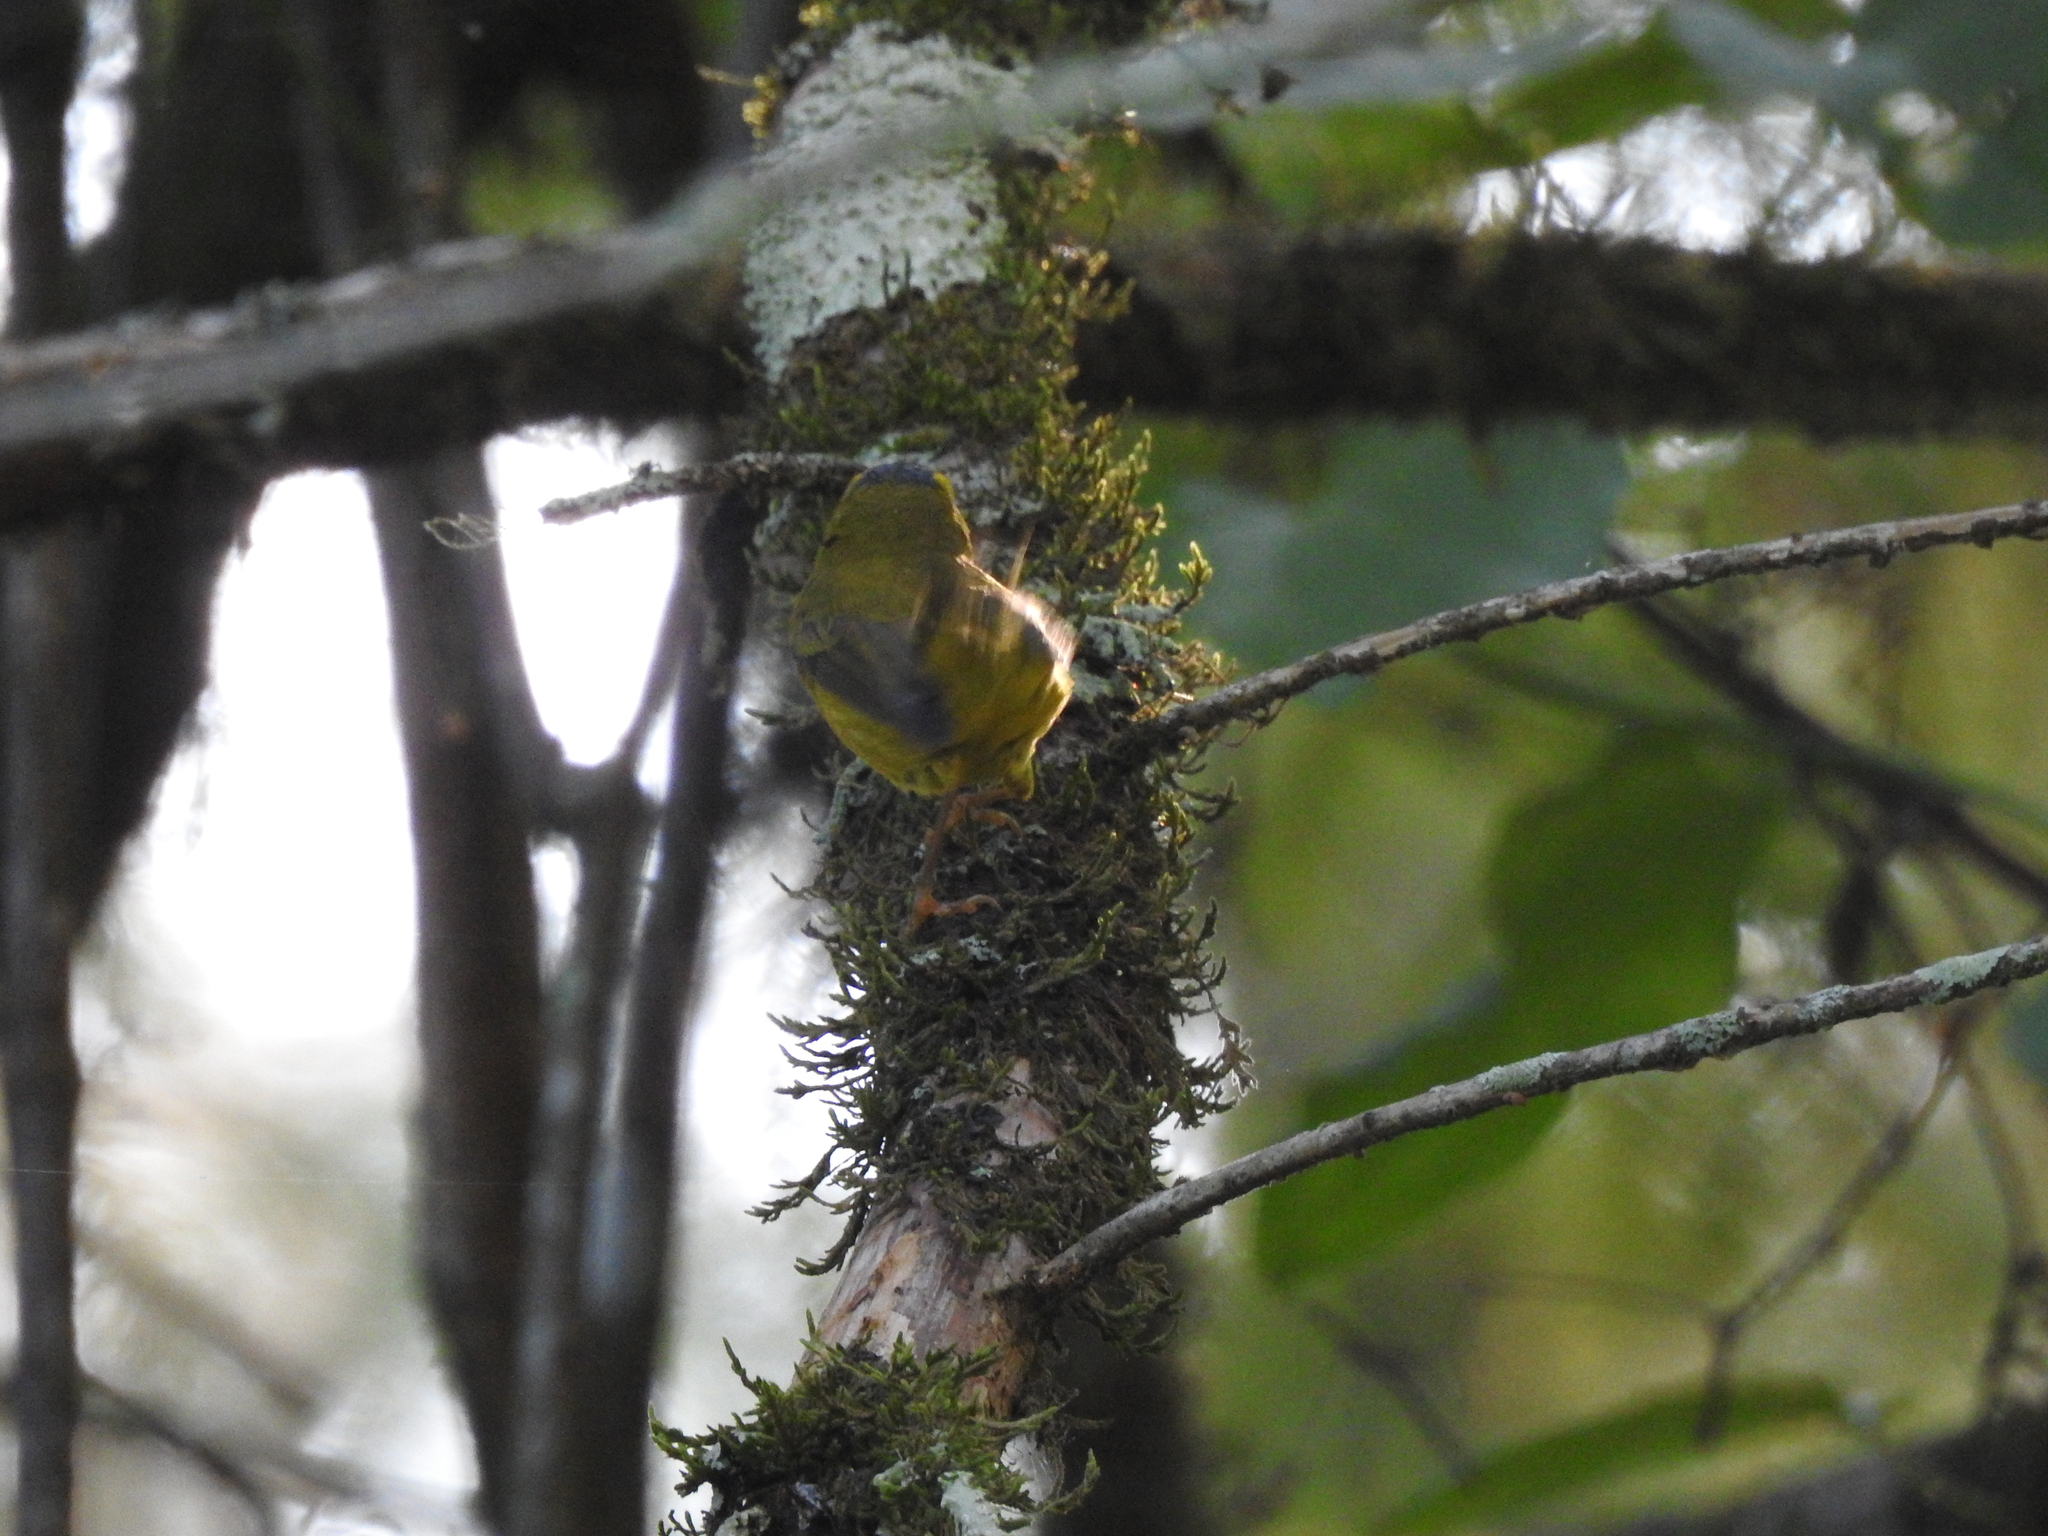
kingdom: Animalia
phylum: Chordata
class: Aves
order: Passeriformes
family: Parulidae
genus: Cardellina
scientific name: Cardellina pusilla
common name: Wilson's warbler
